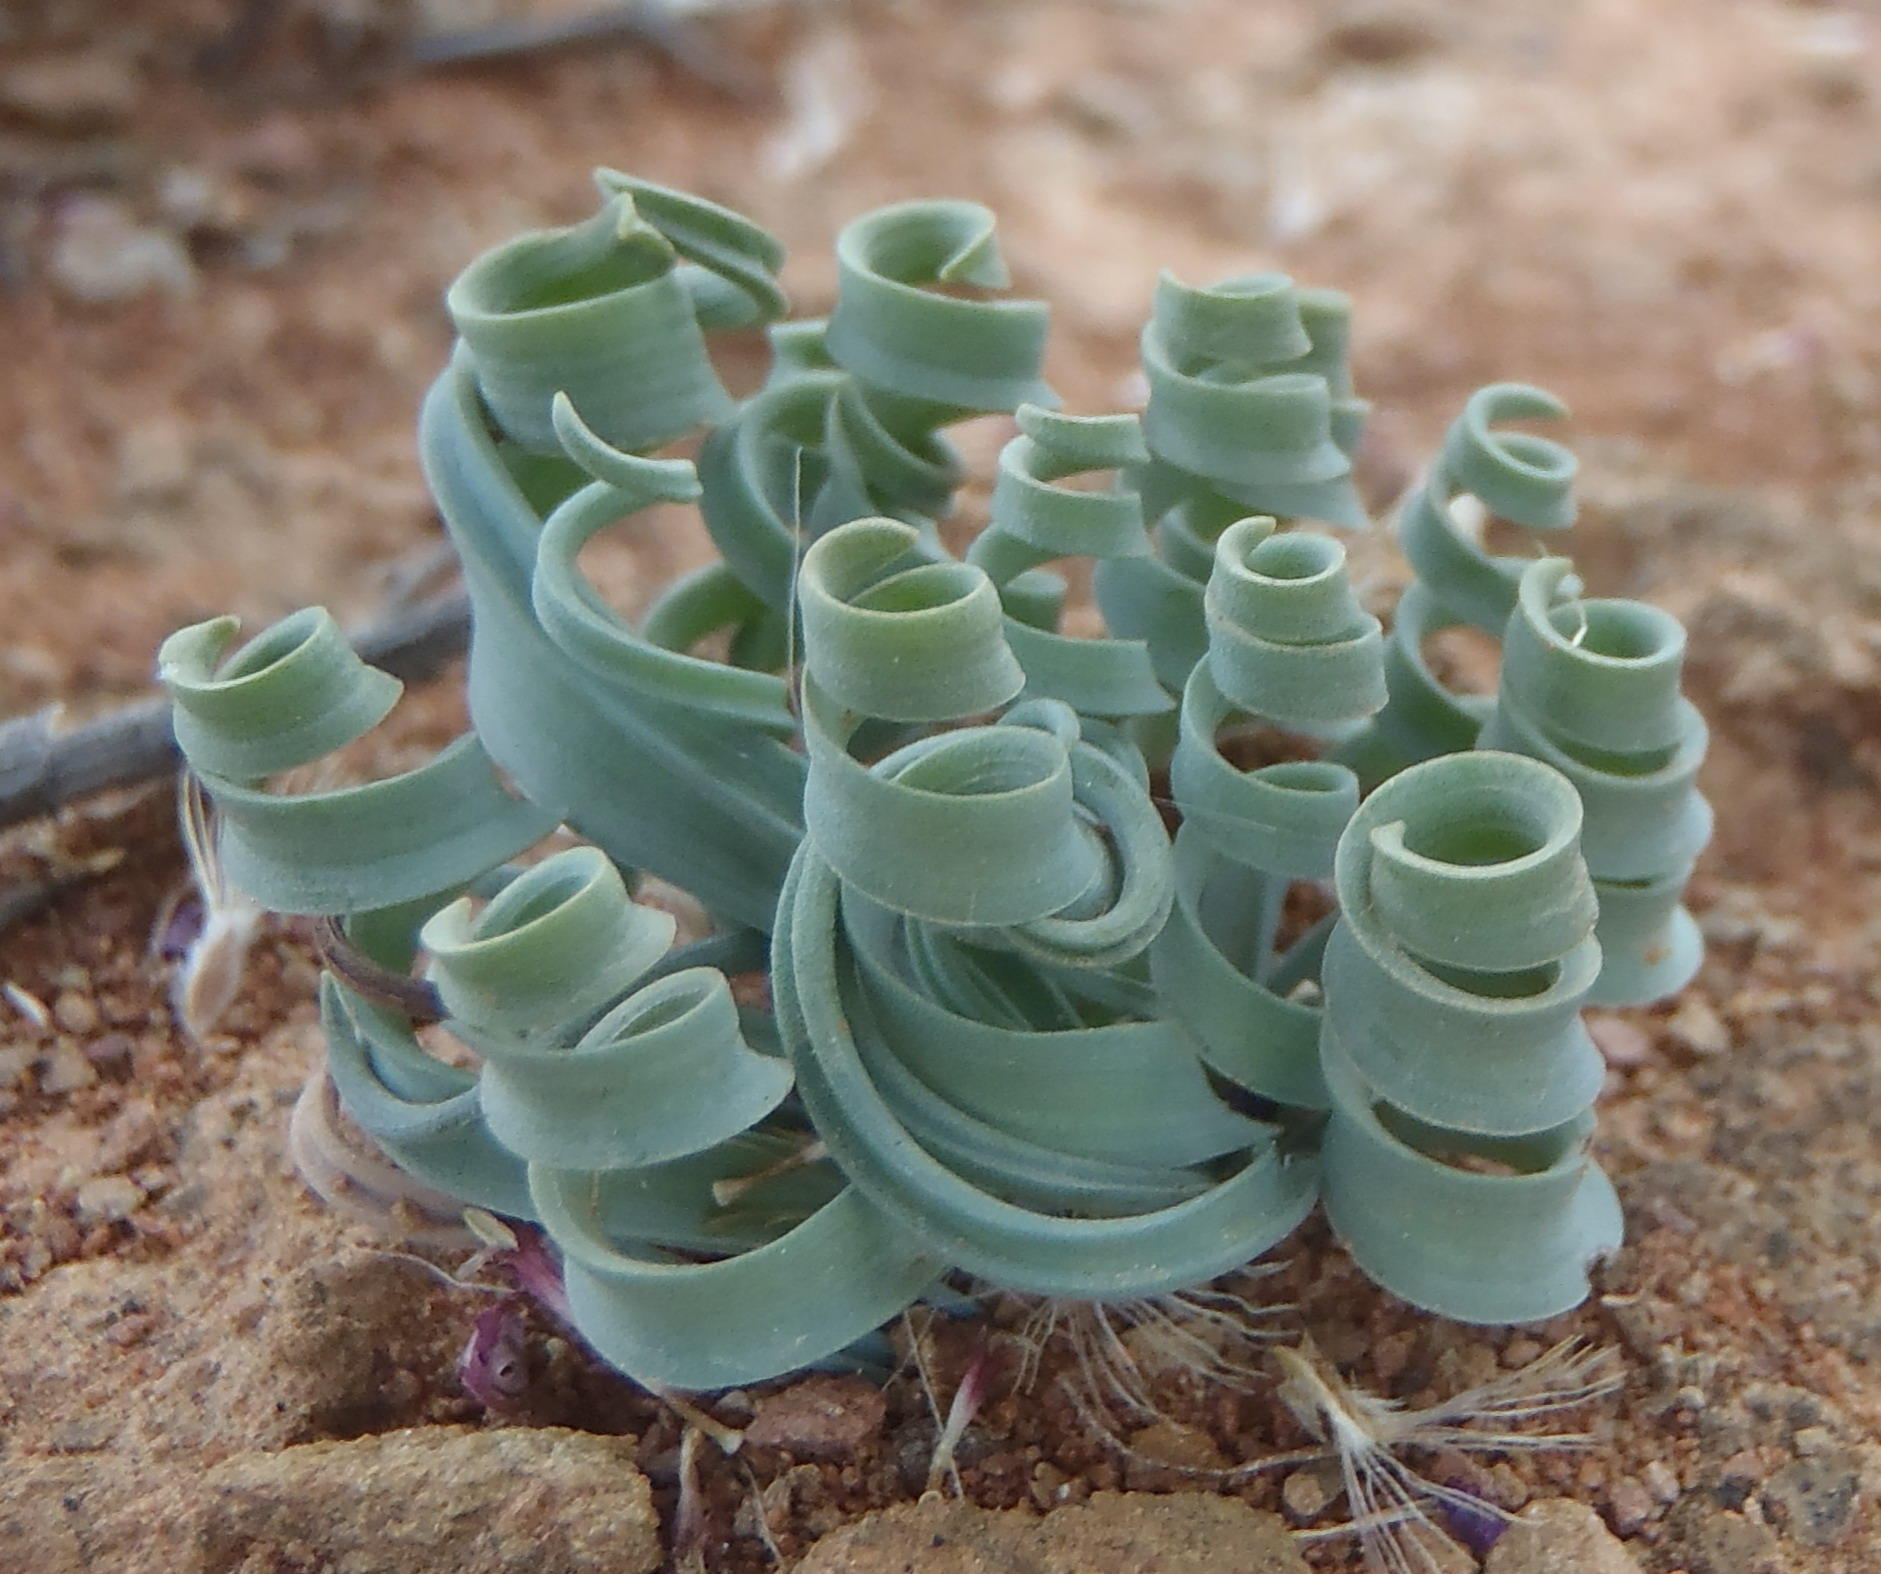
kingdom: Plantae
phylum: Tracheophyta
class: Liliopsida
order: Asparagales
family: Asparagaceae
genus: Albuca
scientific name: Albuca concordiana
